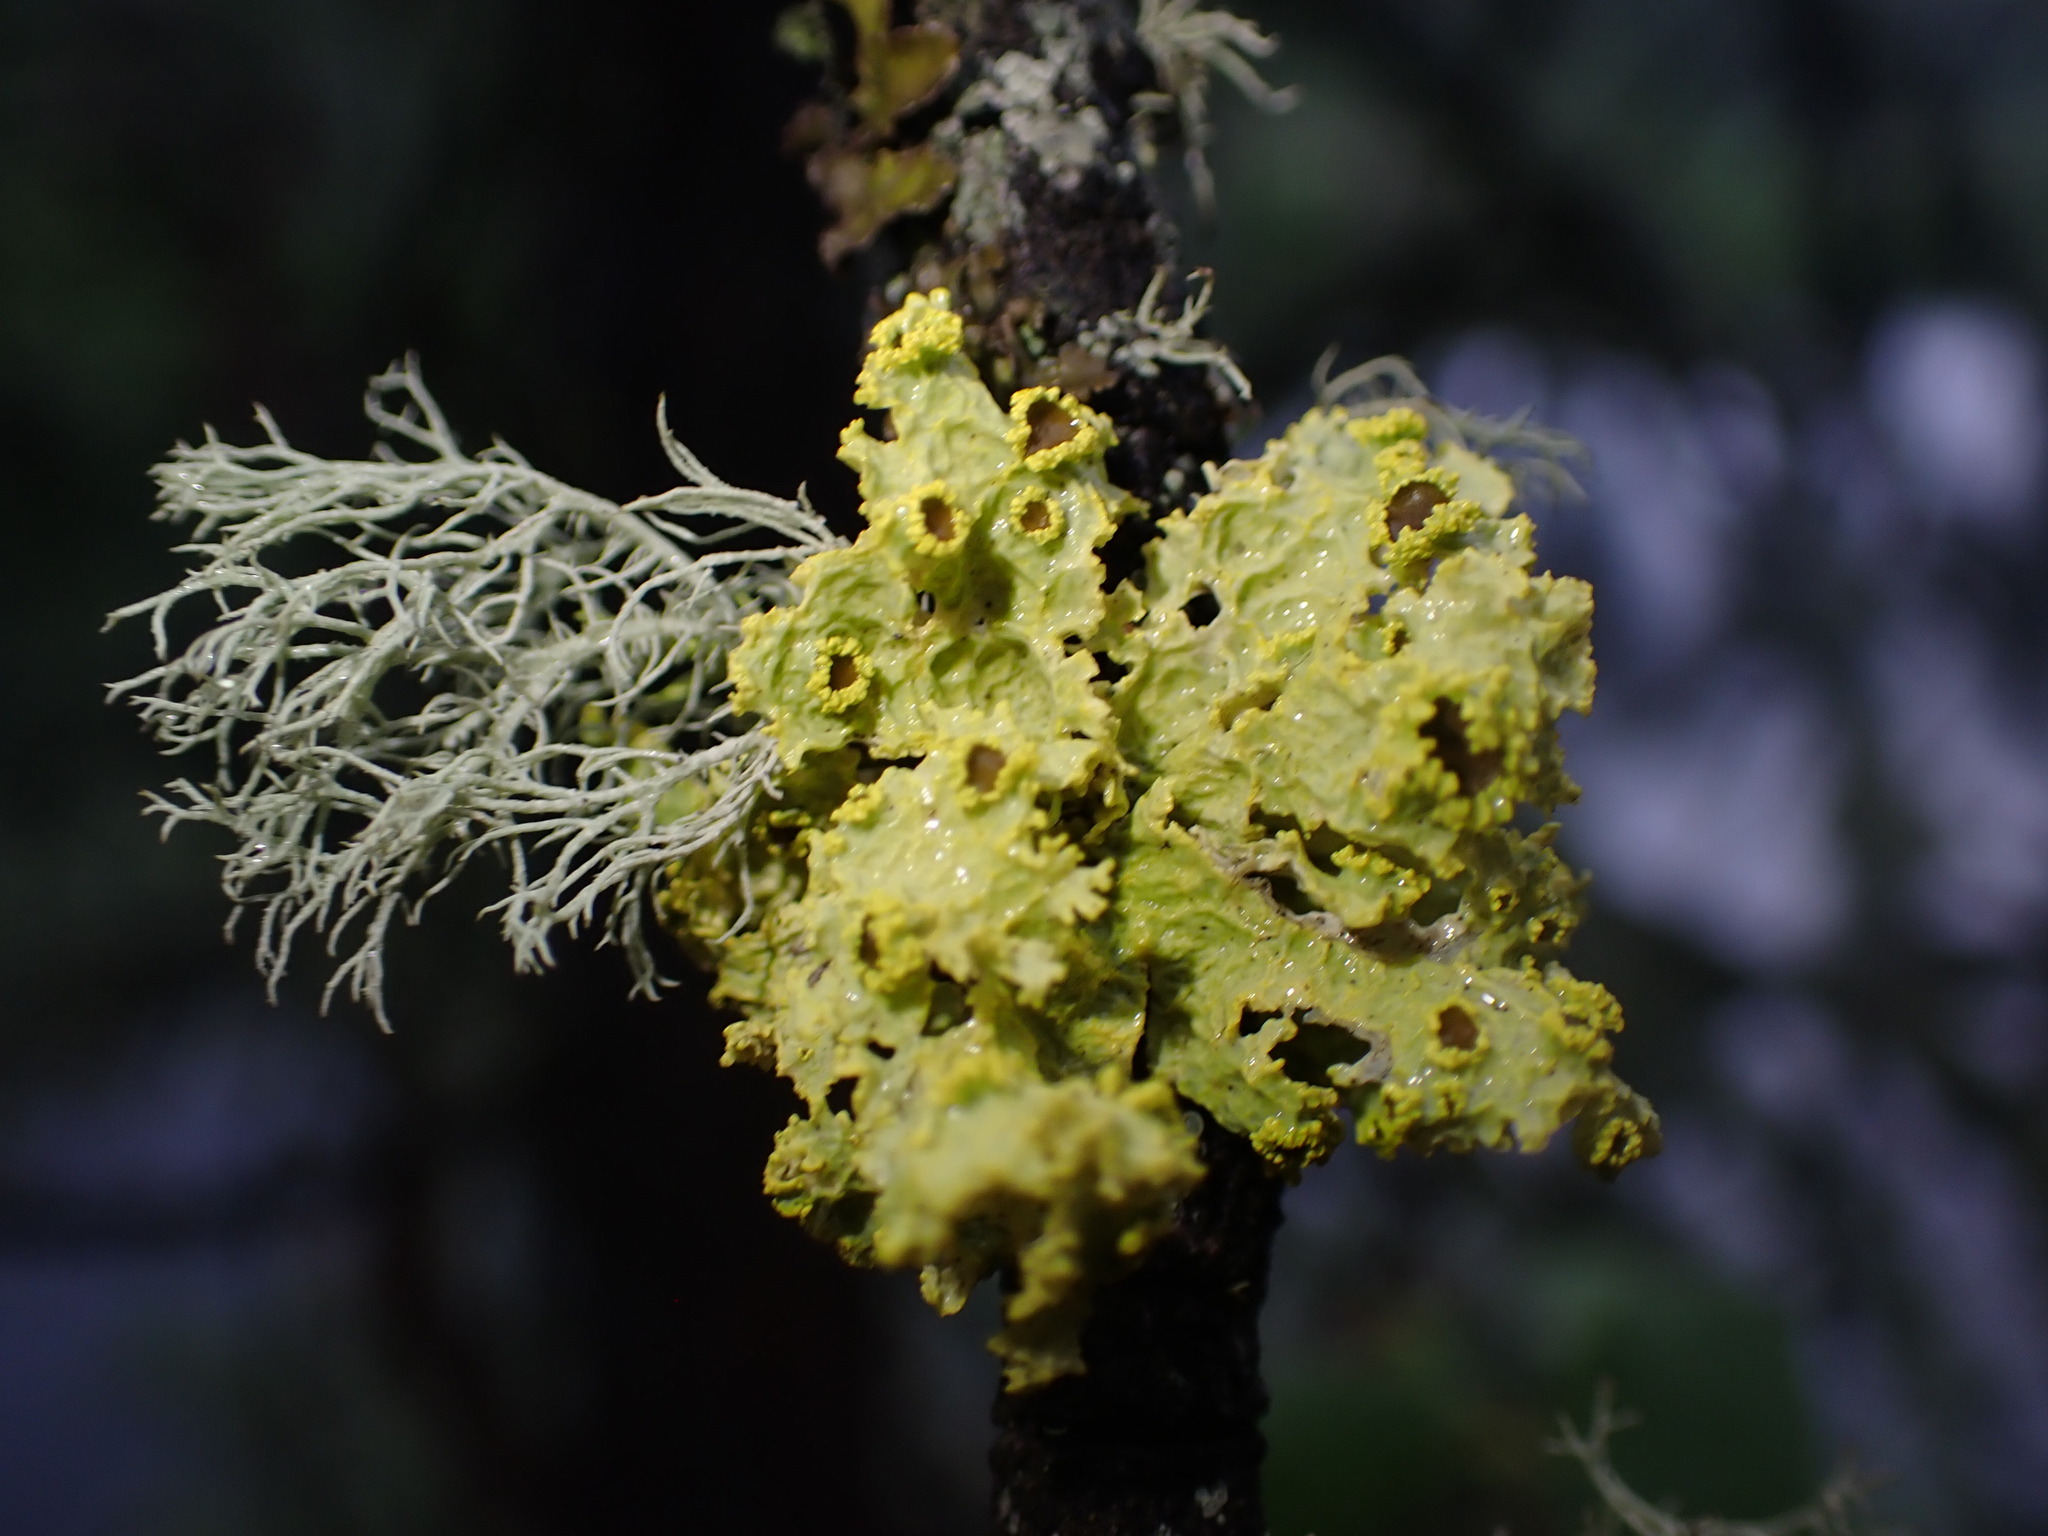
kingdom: Fungi
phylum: Ascomycota
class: Lecanoromycetes
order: Lecanorales
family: Parmeliaceae
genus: Vulpicida
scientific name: Vulpicida canadensis
